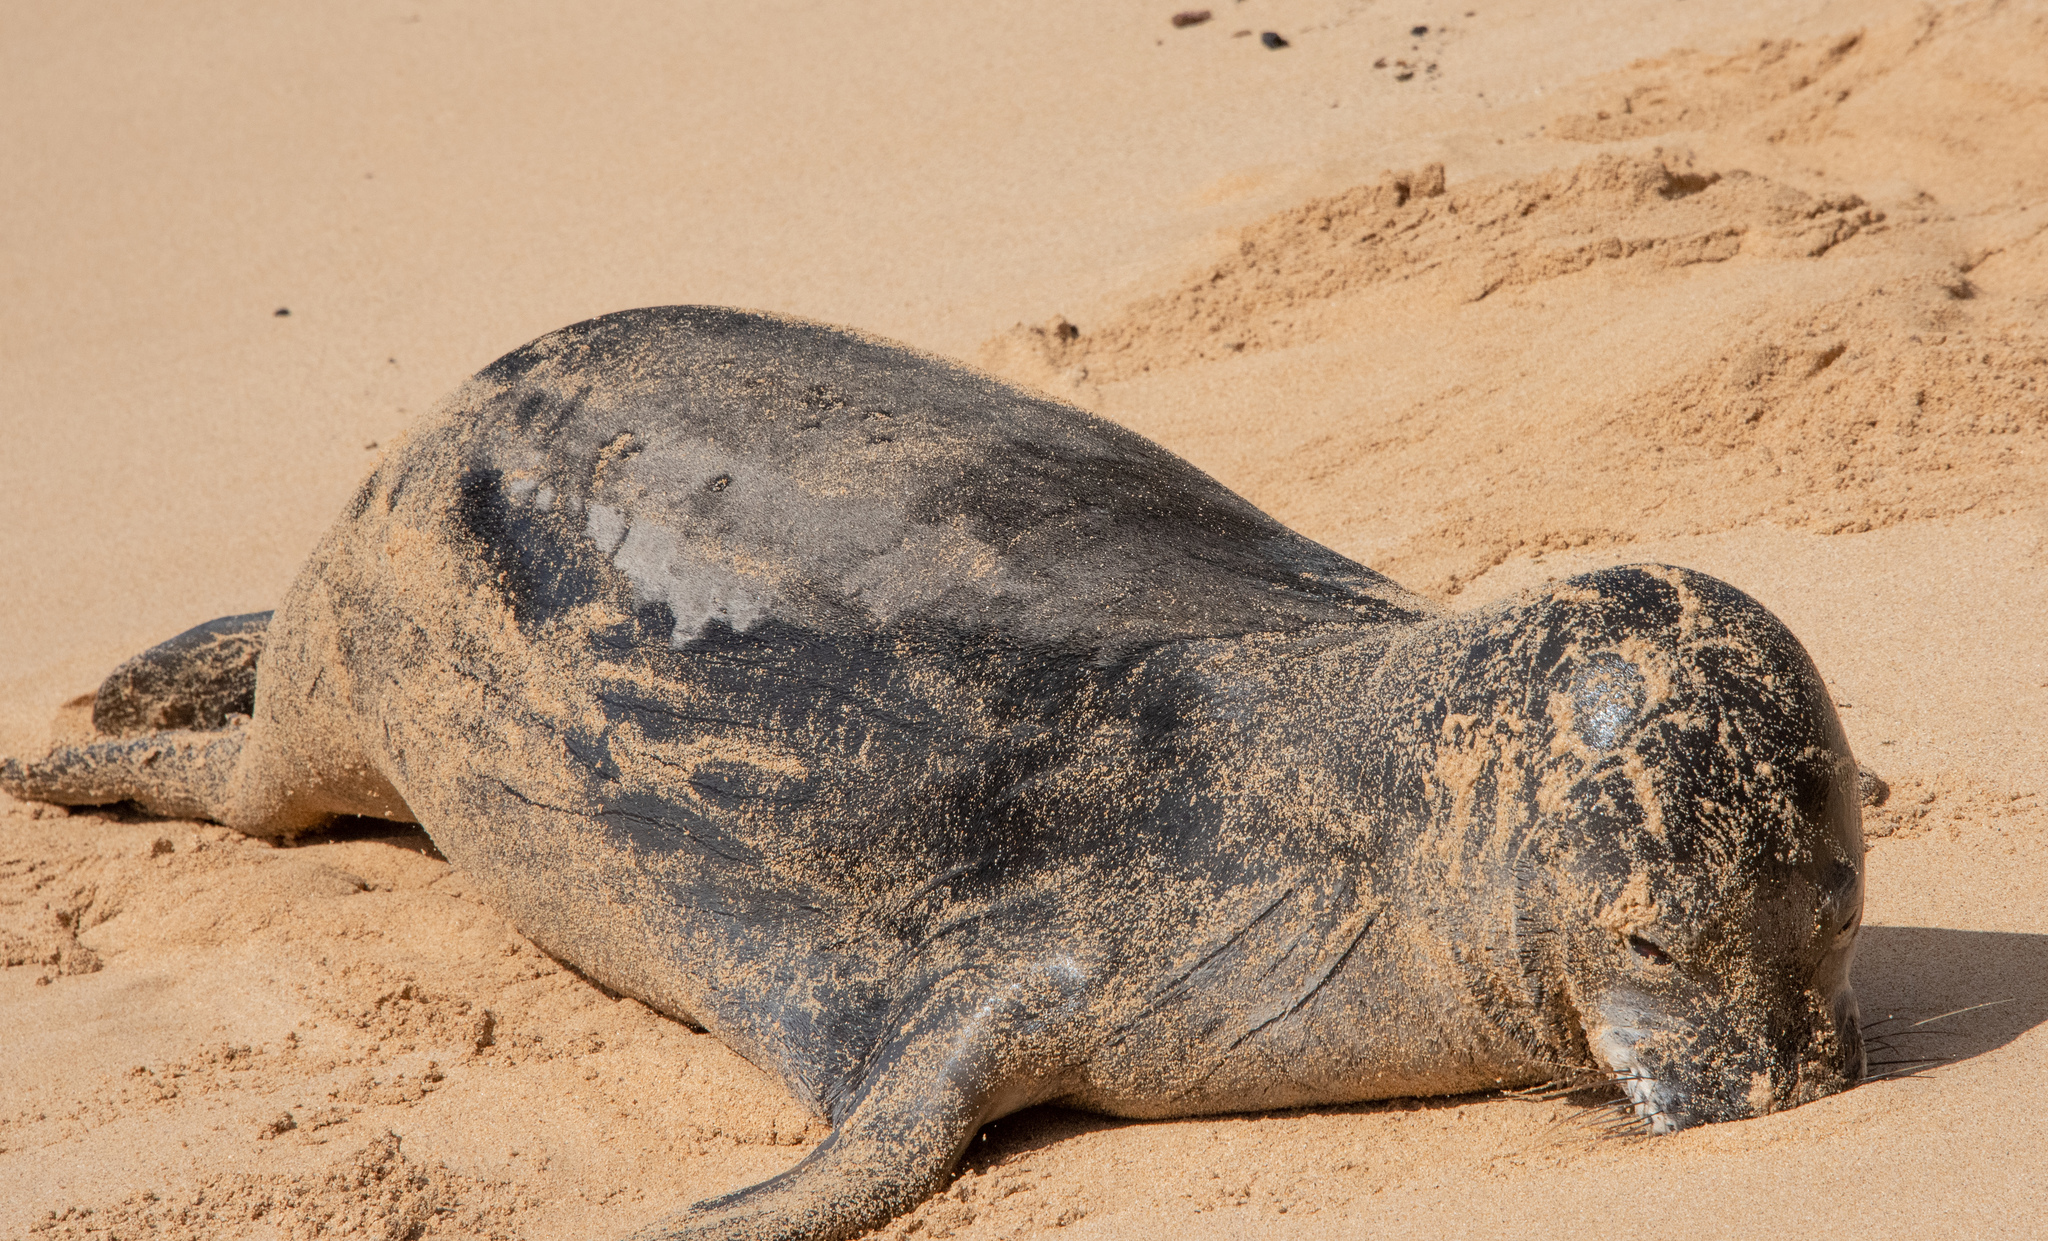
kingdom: Animalia
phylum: Chordata
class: Mammalia
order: Carnivora
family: Phocidae
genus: Neomonachus
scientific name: Neomonachus schauinslandi
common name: Hawaiian monk seal
